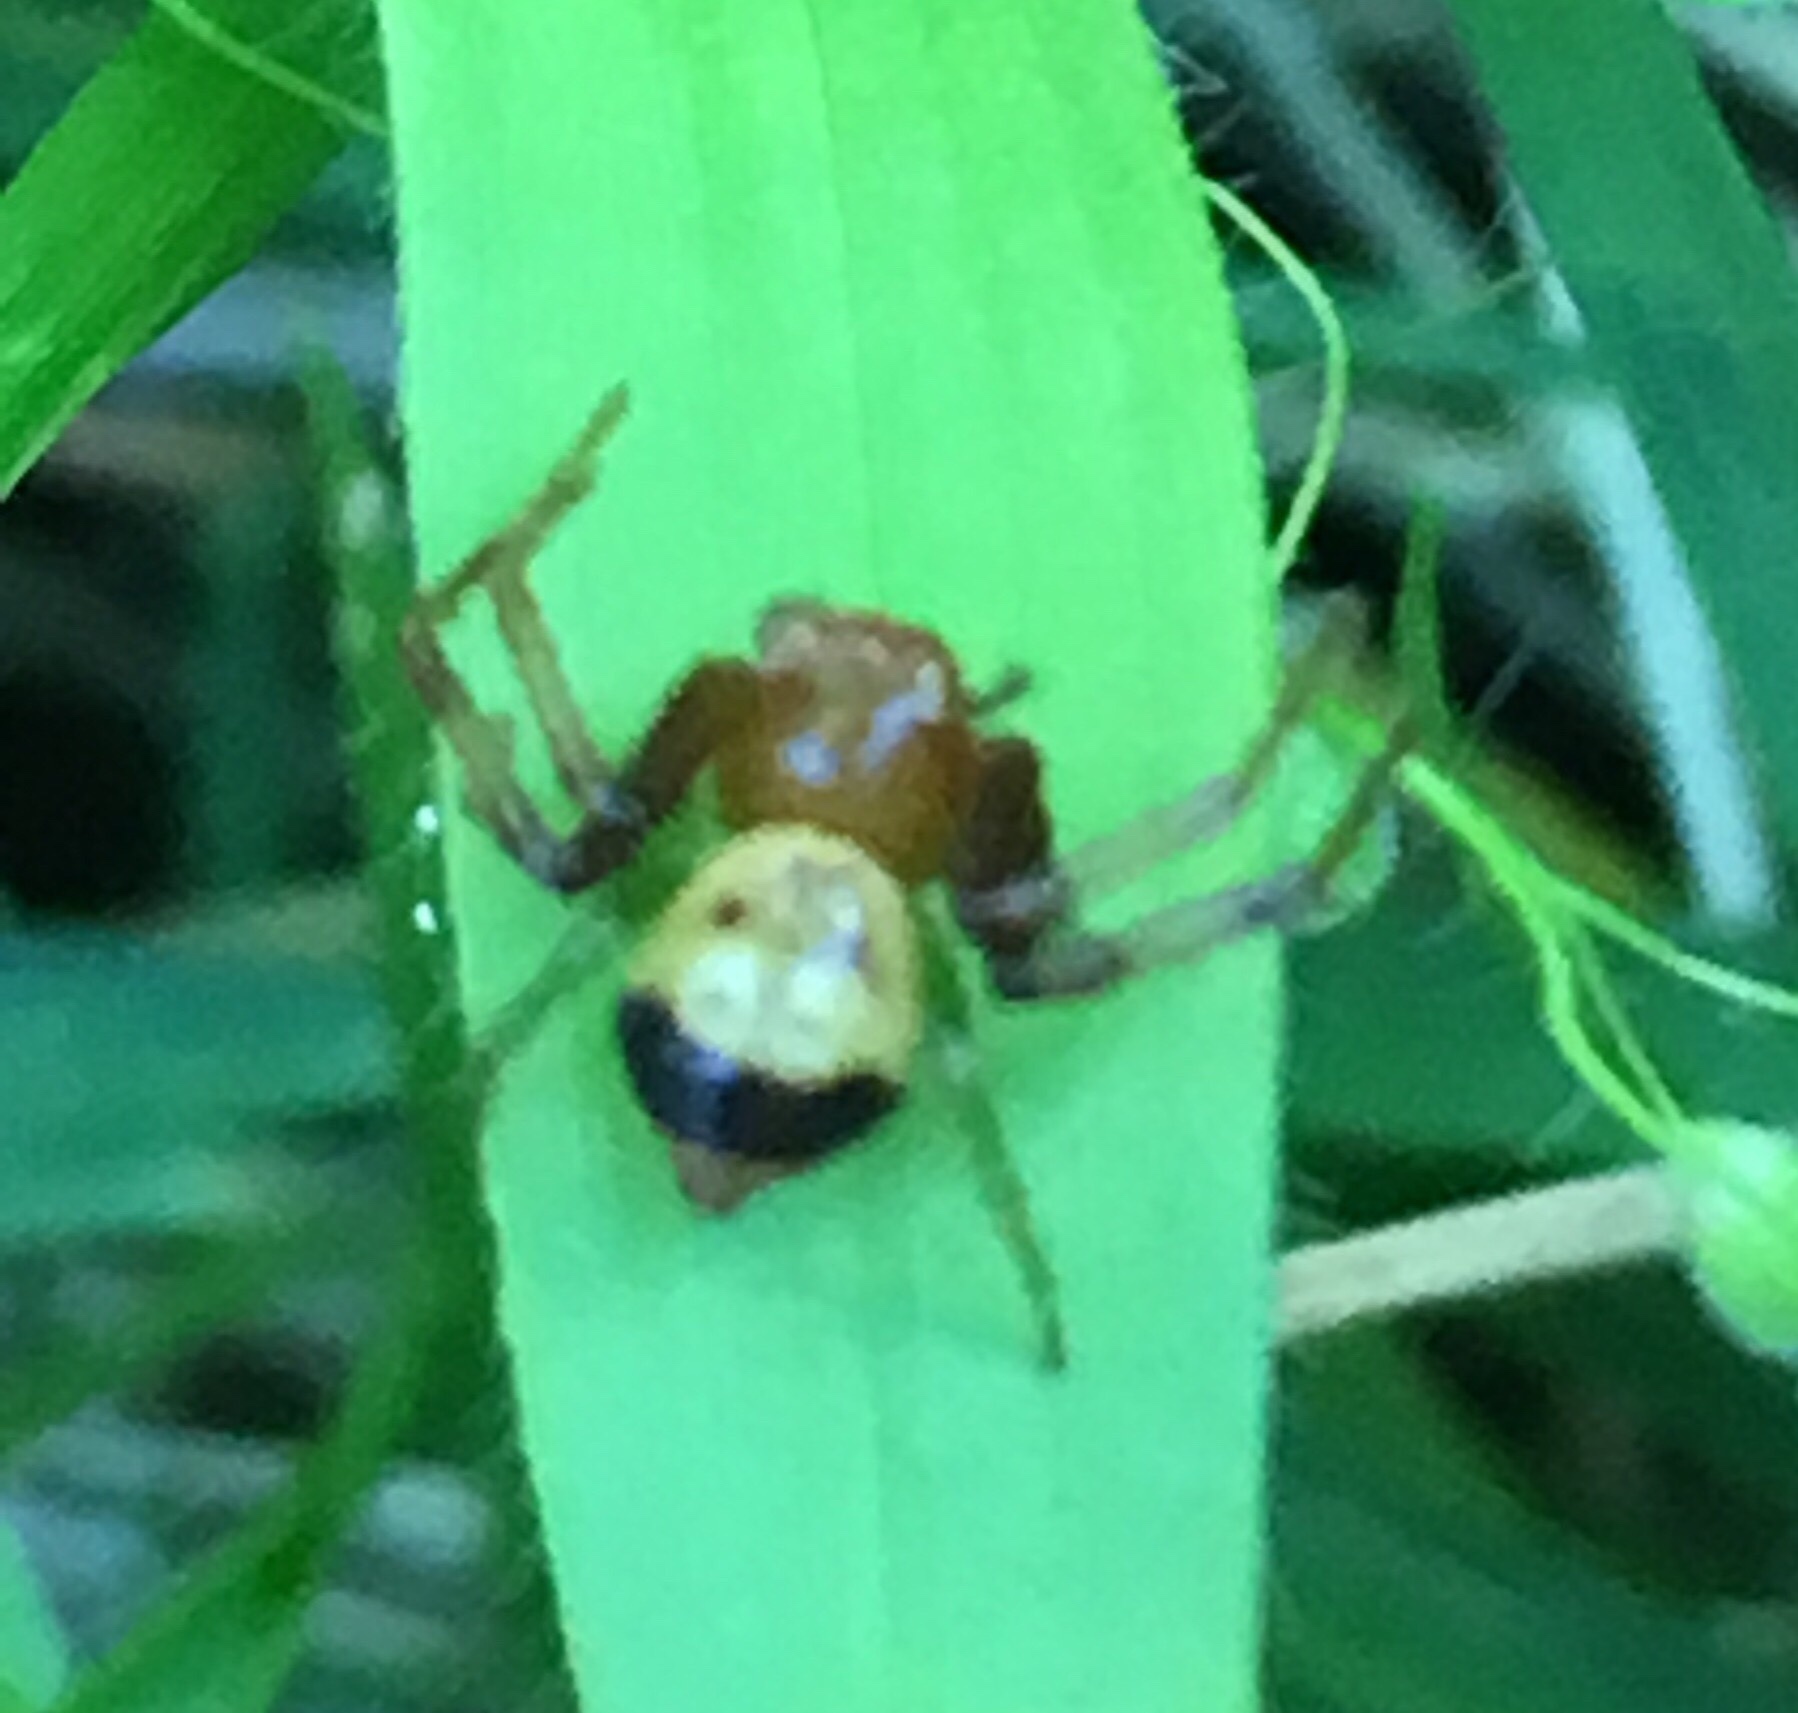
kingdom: Animalia
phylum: Arthropoda
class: Arachnida
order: Araneae
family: Thomisidae
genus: Synema
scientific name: Synema parvulum
